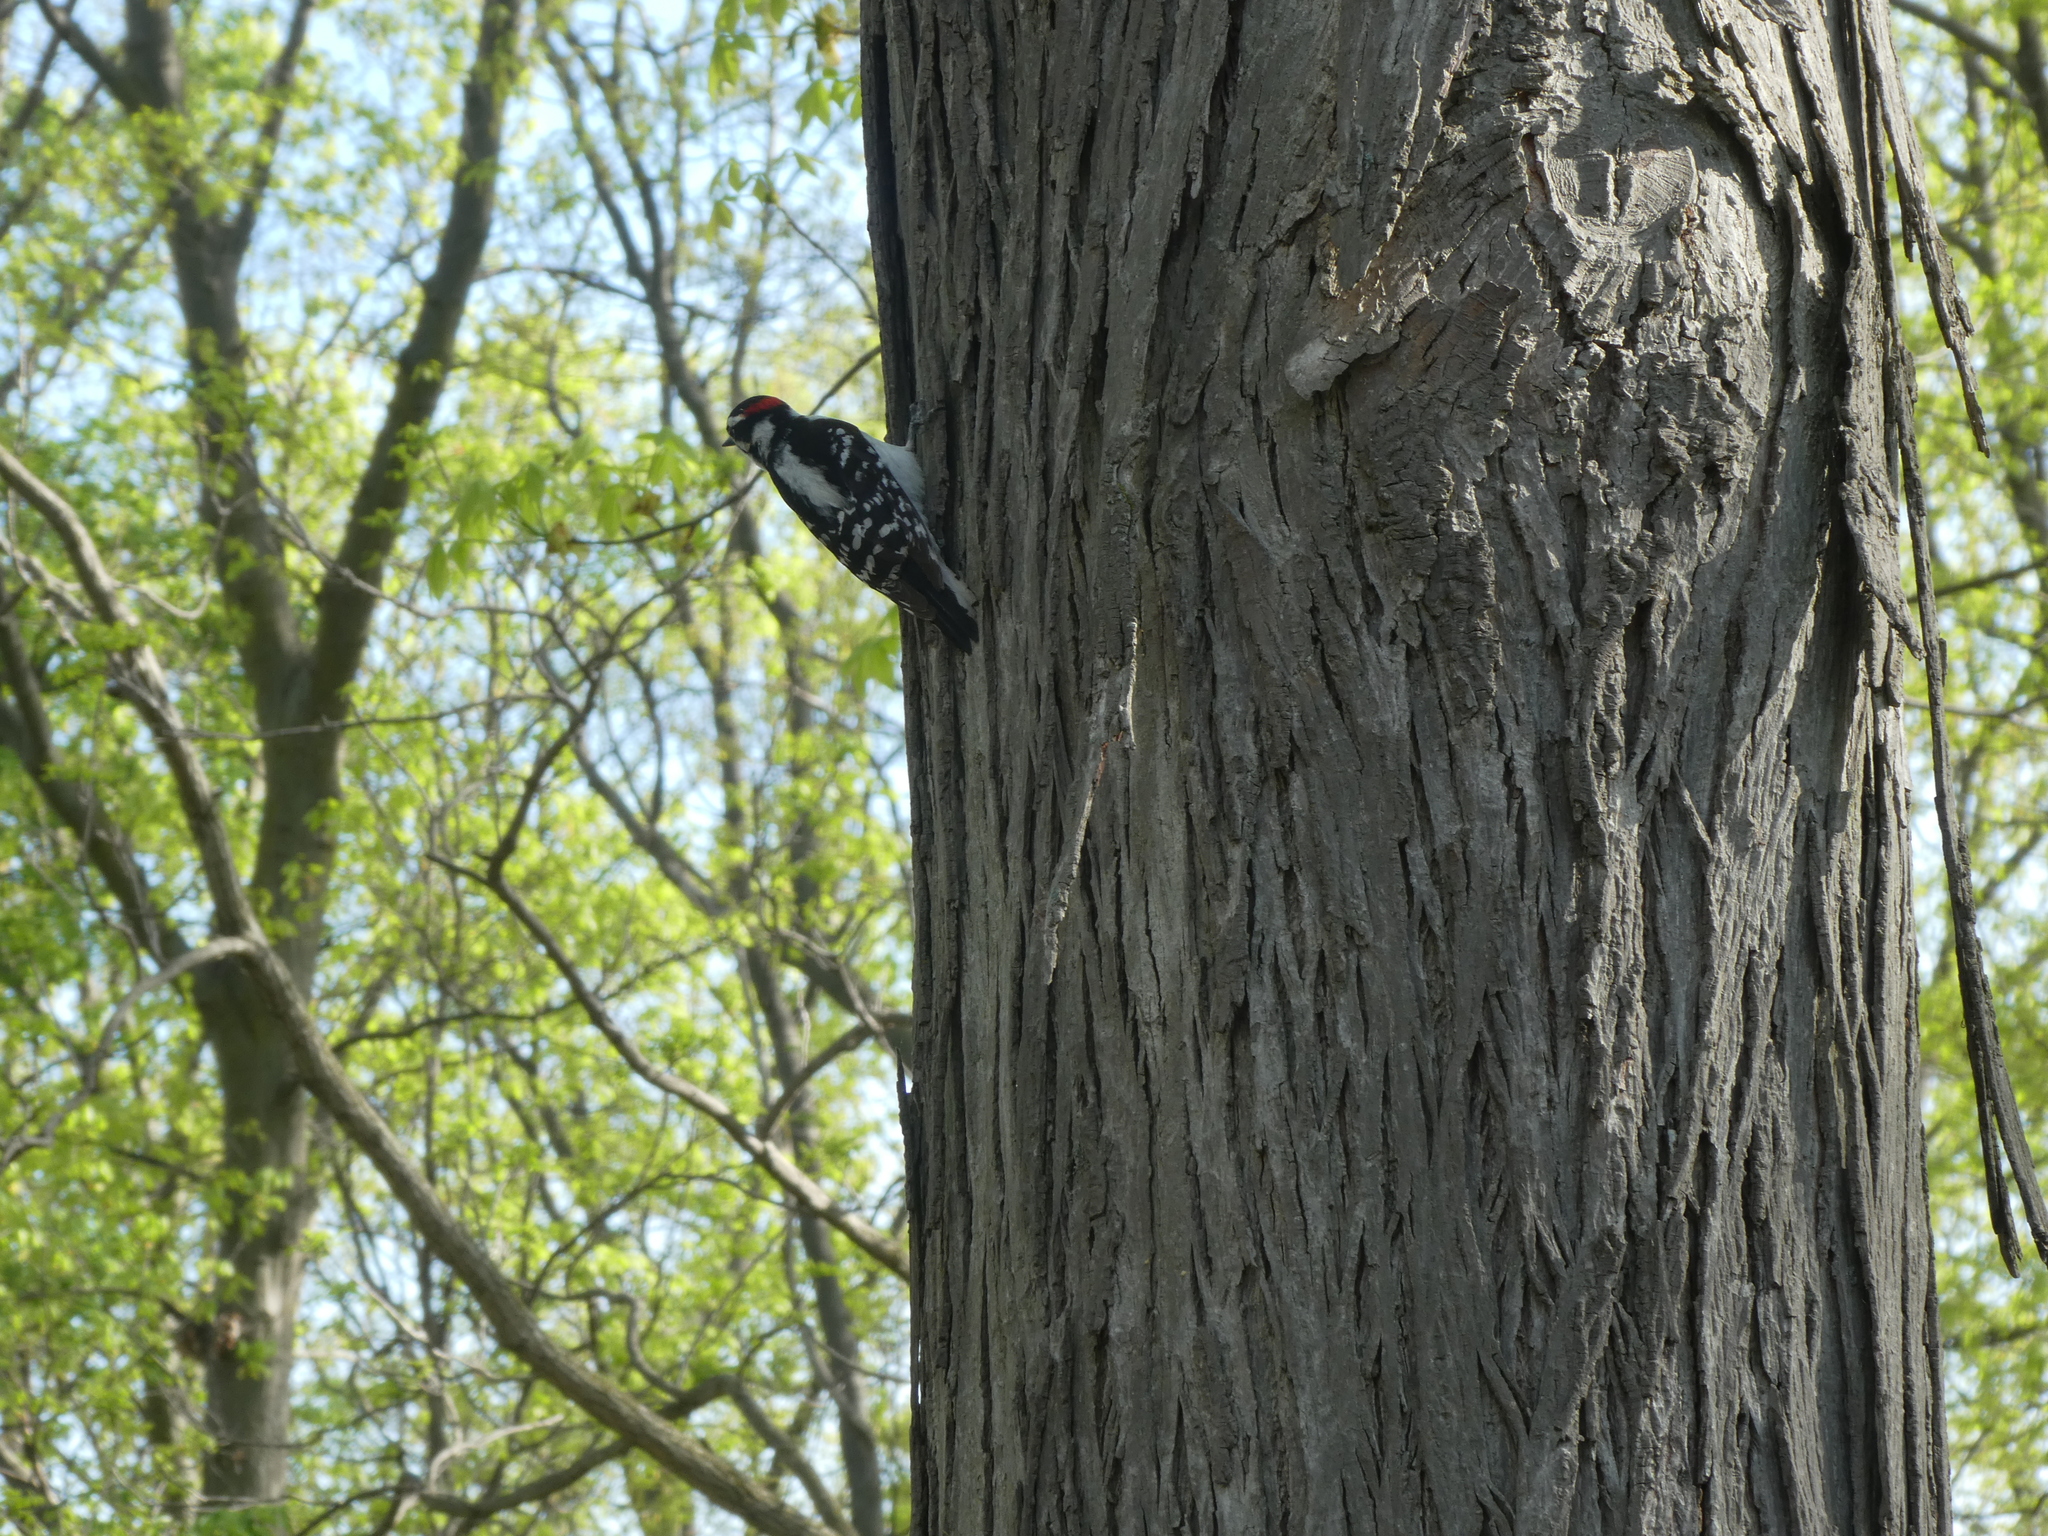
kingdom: Animalia
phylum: Chordata
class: Aves
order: Piciformes
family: Picidae
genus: Dryobates
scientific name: Dryobates pubescens
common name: Downy woodpecker
